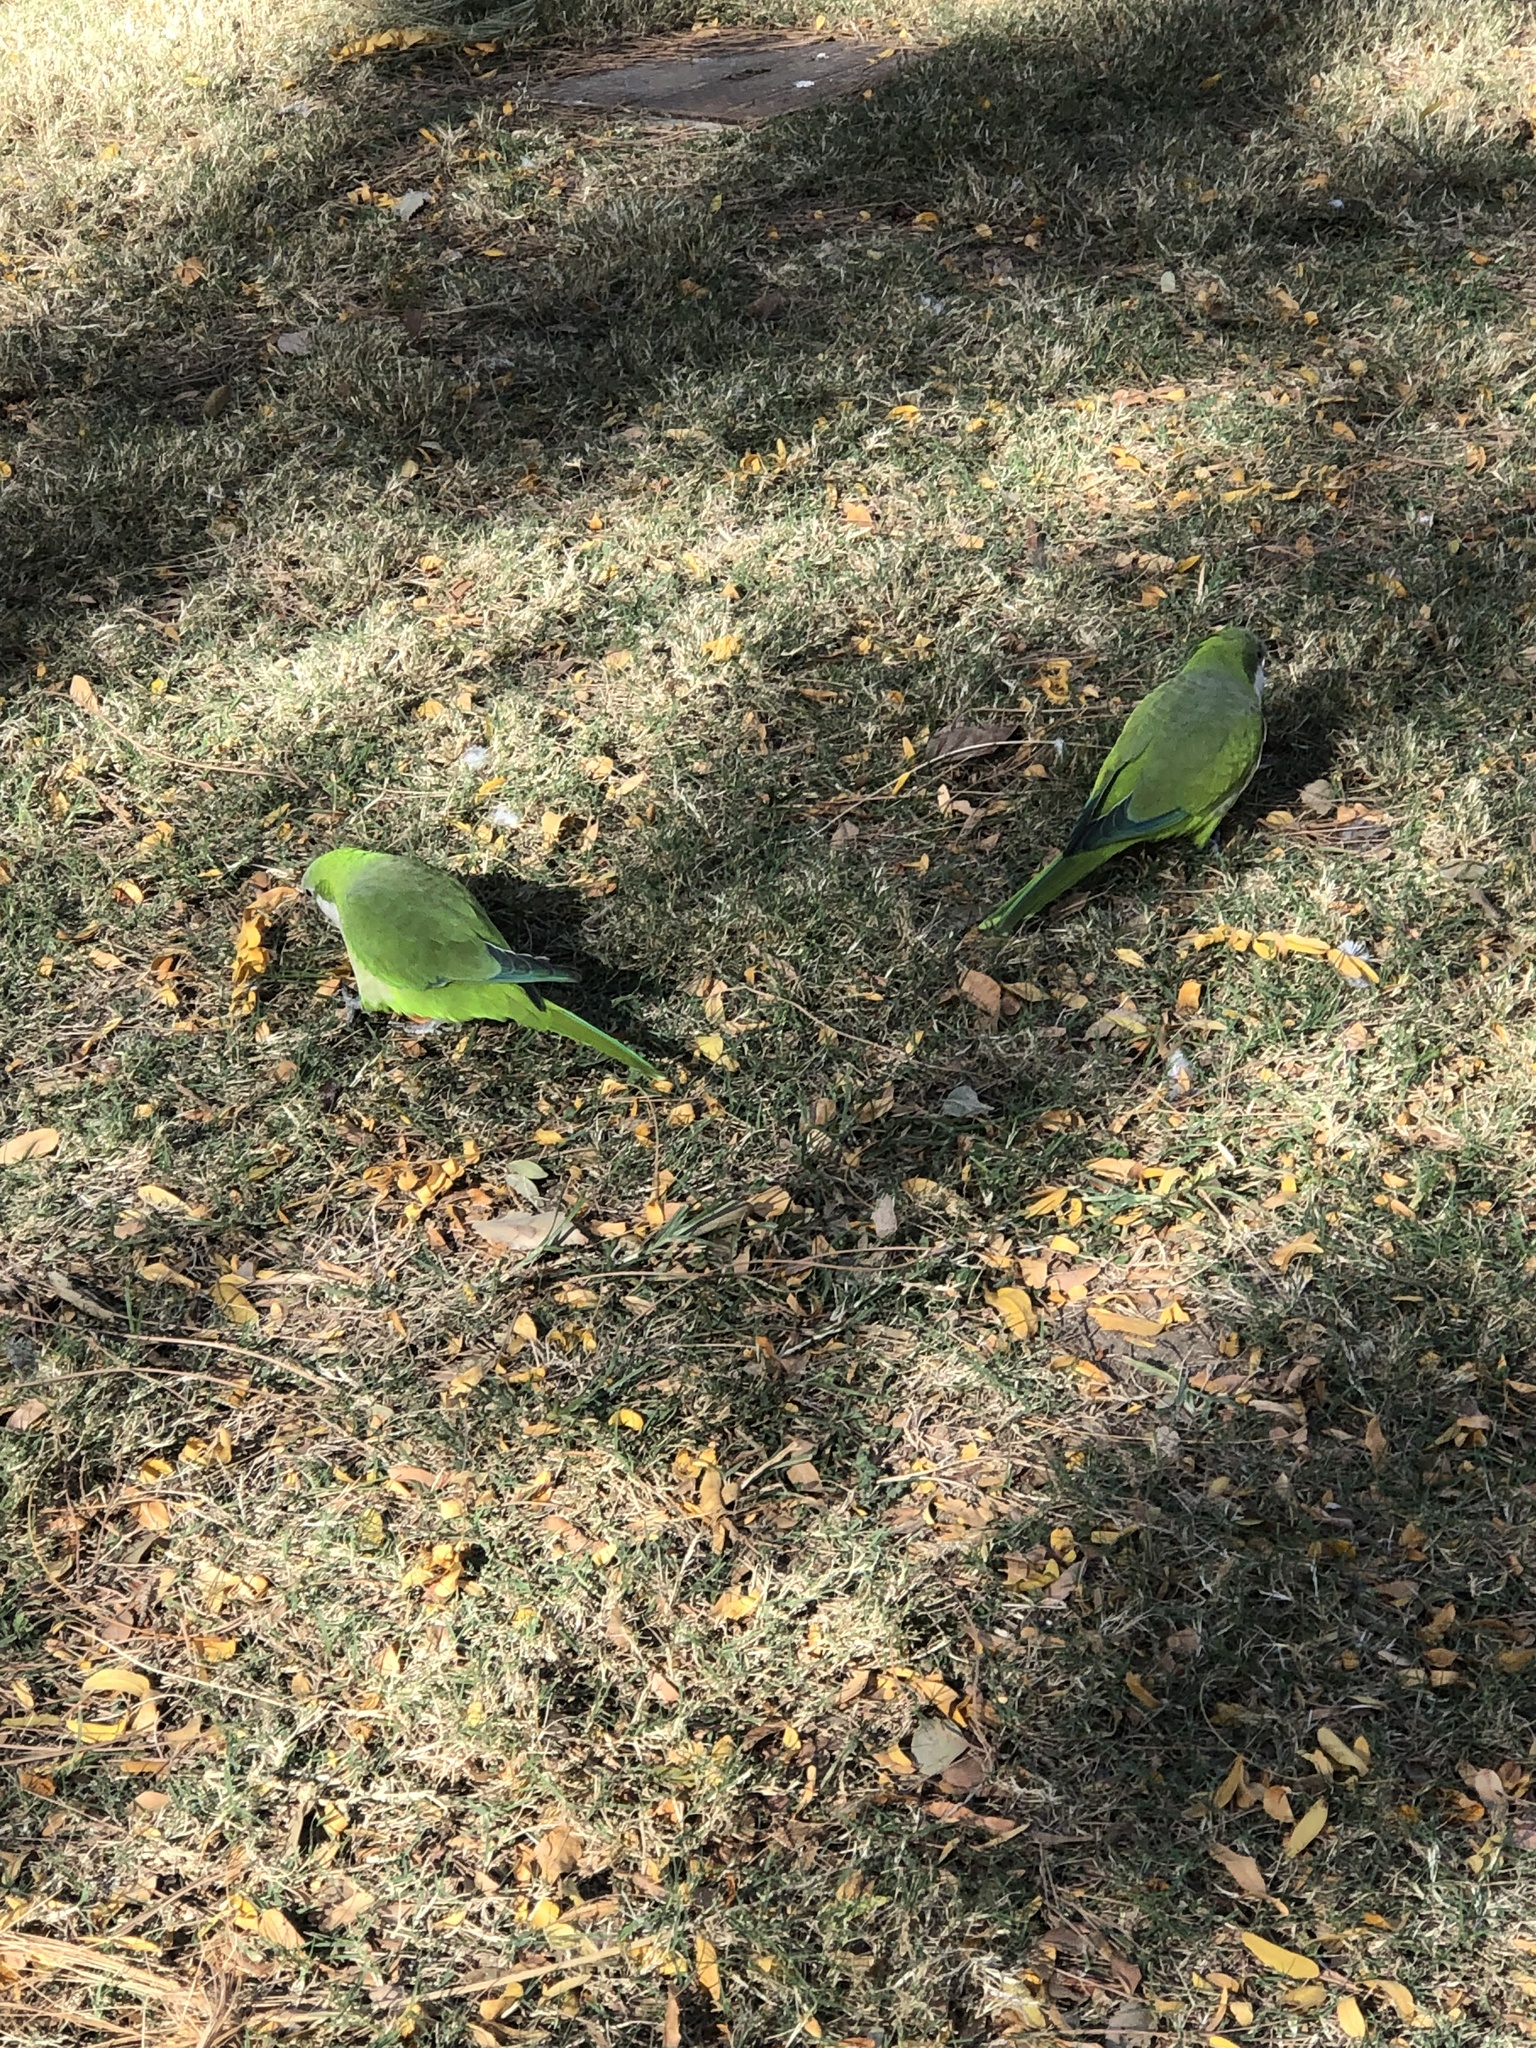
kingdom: Animalia
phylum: Chordata
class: Aves
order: Psittaciformes
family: Psittacidae
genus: Myiopsitta
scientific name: Myiopsitta monachus
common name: Monk parakeet
